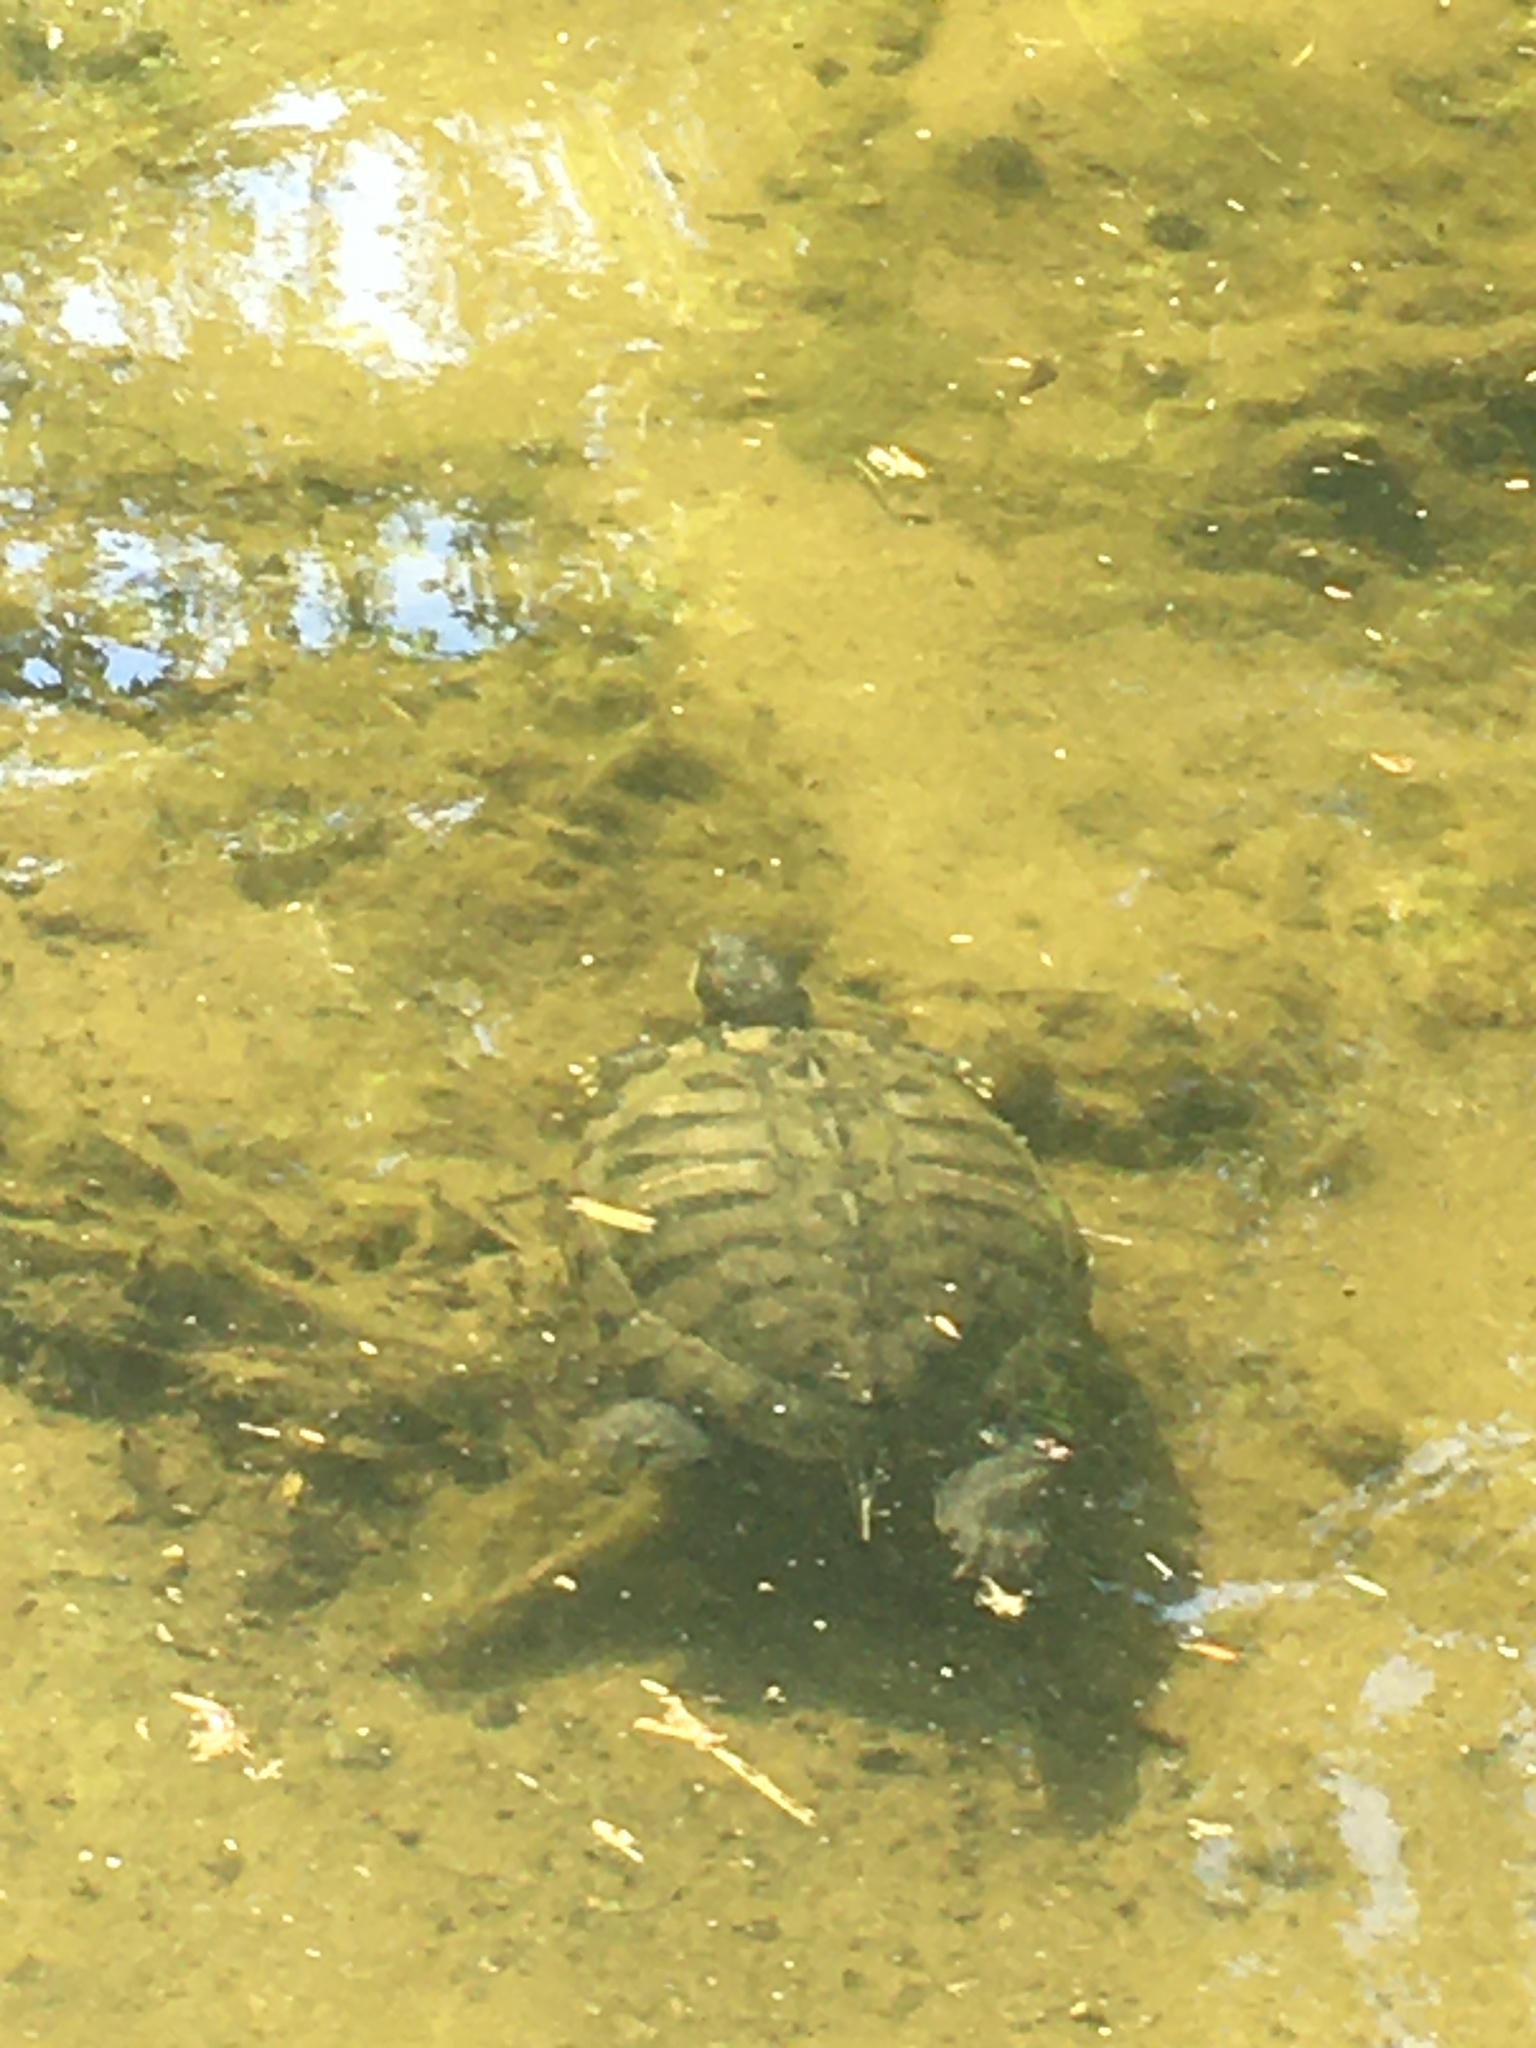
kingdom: Animalia
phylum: Chordata
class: Testudines
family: Emydidae
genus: Trachemys
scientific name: Trachemys scripta
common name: Slider
